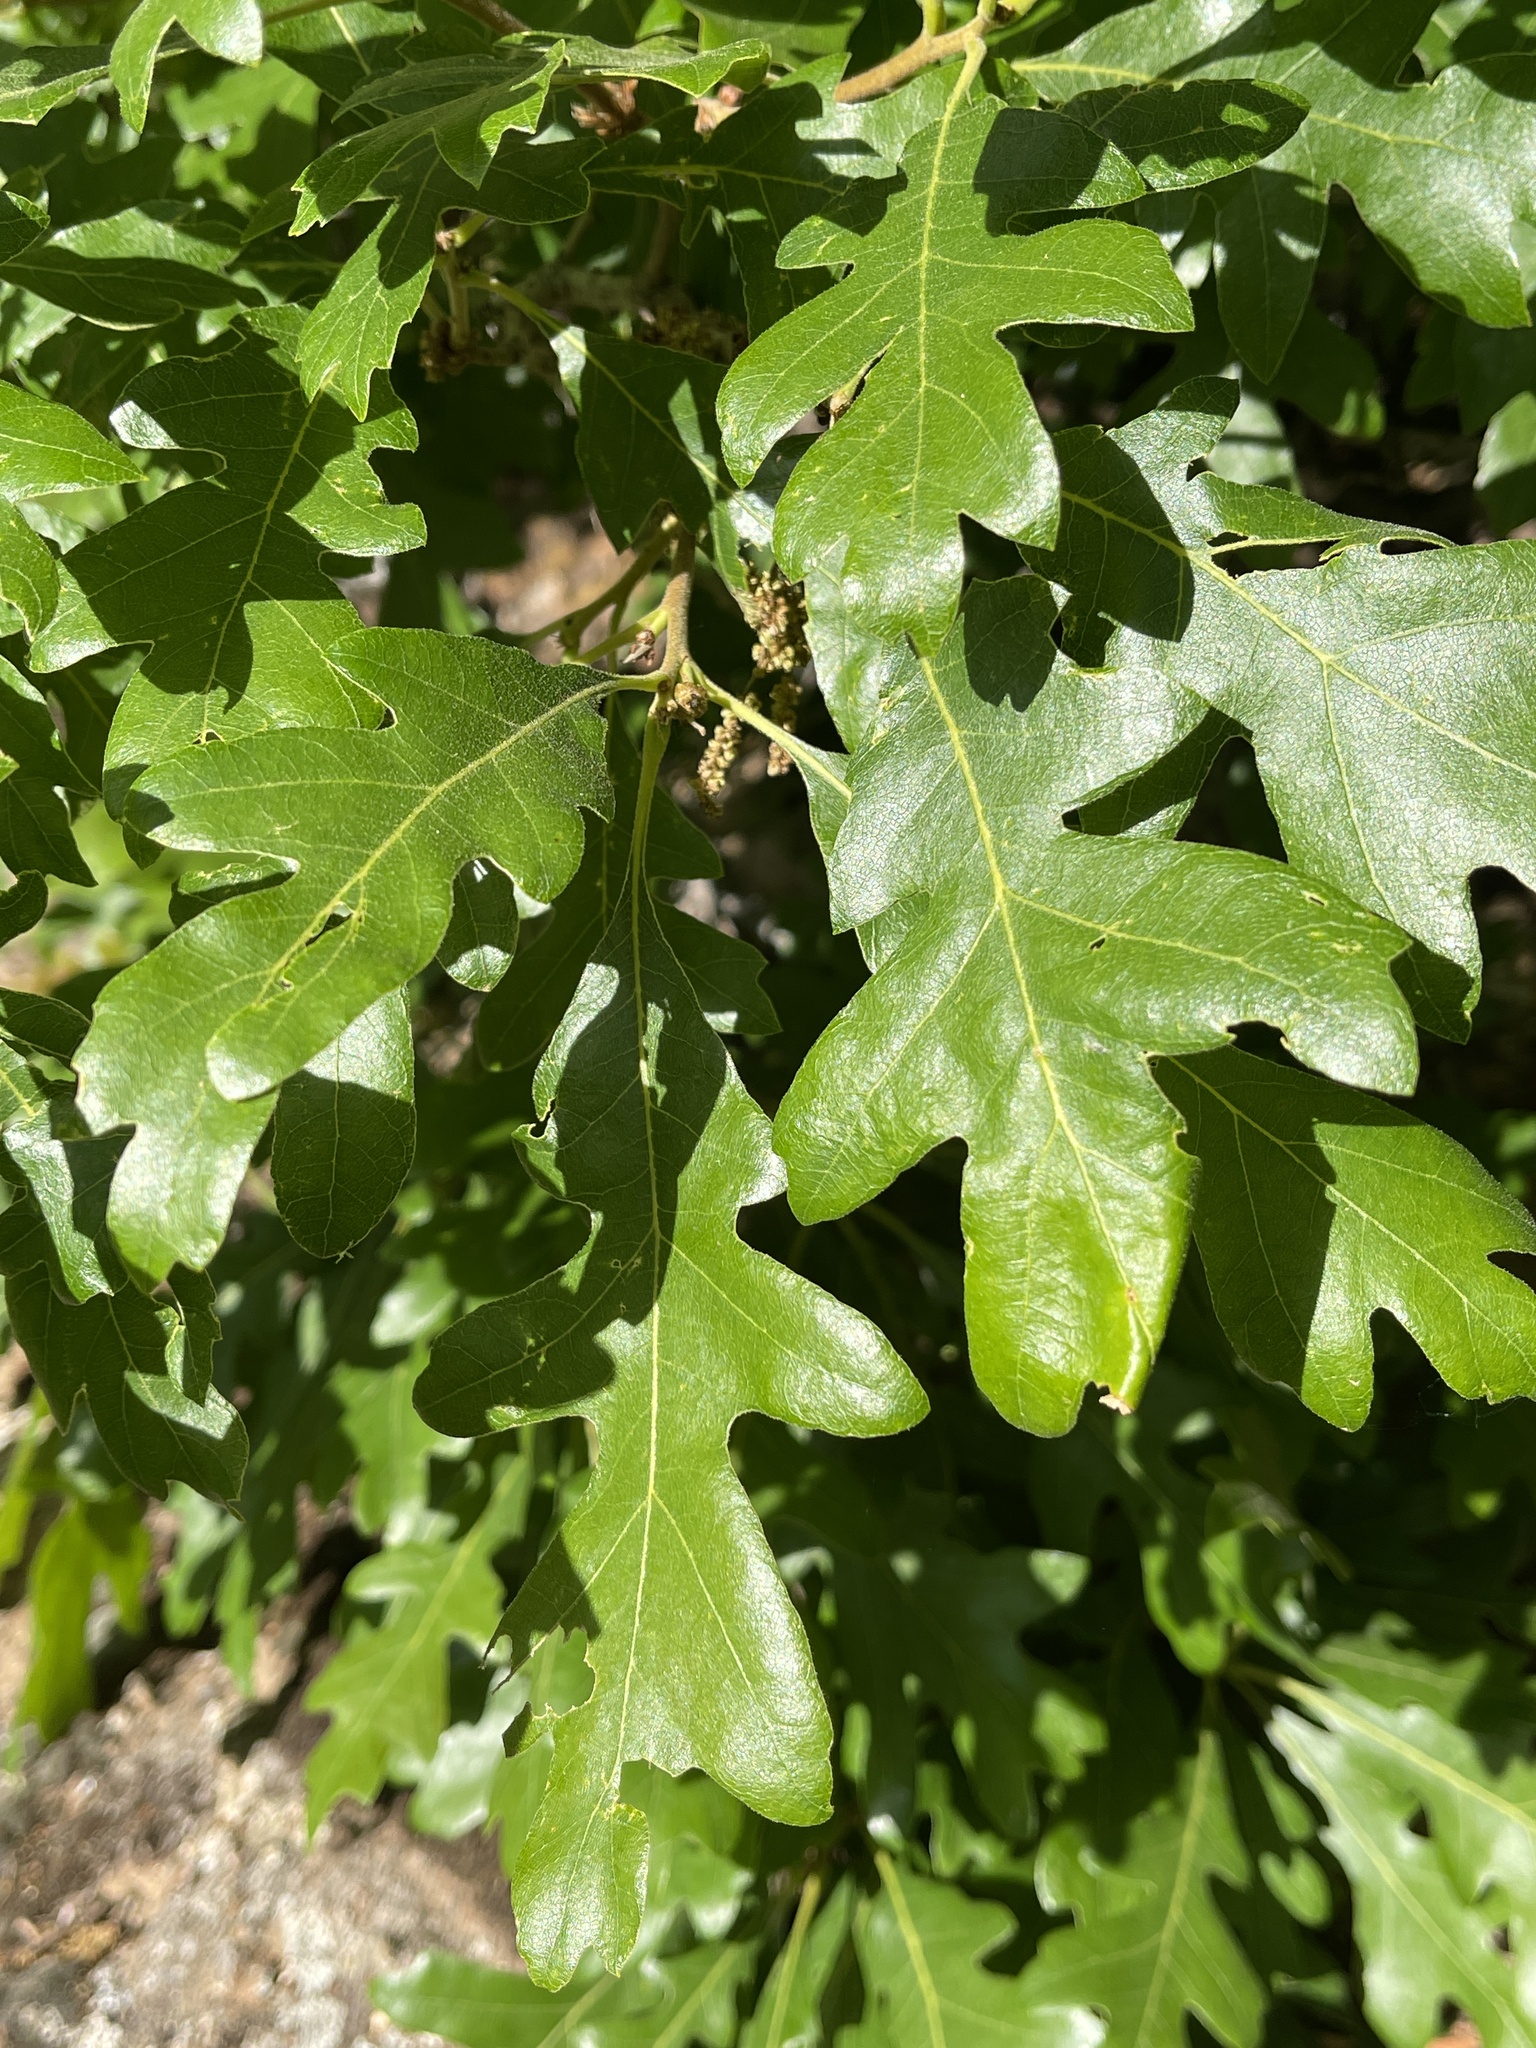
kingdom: Plantae
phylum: Tracheophyta
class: Magnoliopsida
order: Fagales
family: Fagaceae
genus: Quercus
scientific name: Quercus gambelii
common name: Gambel oak
